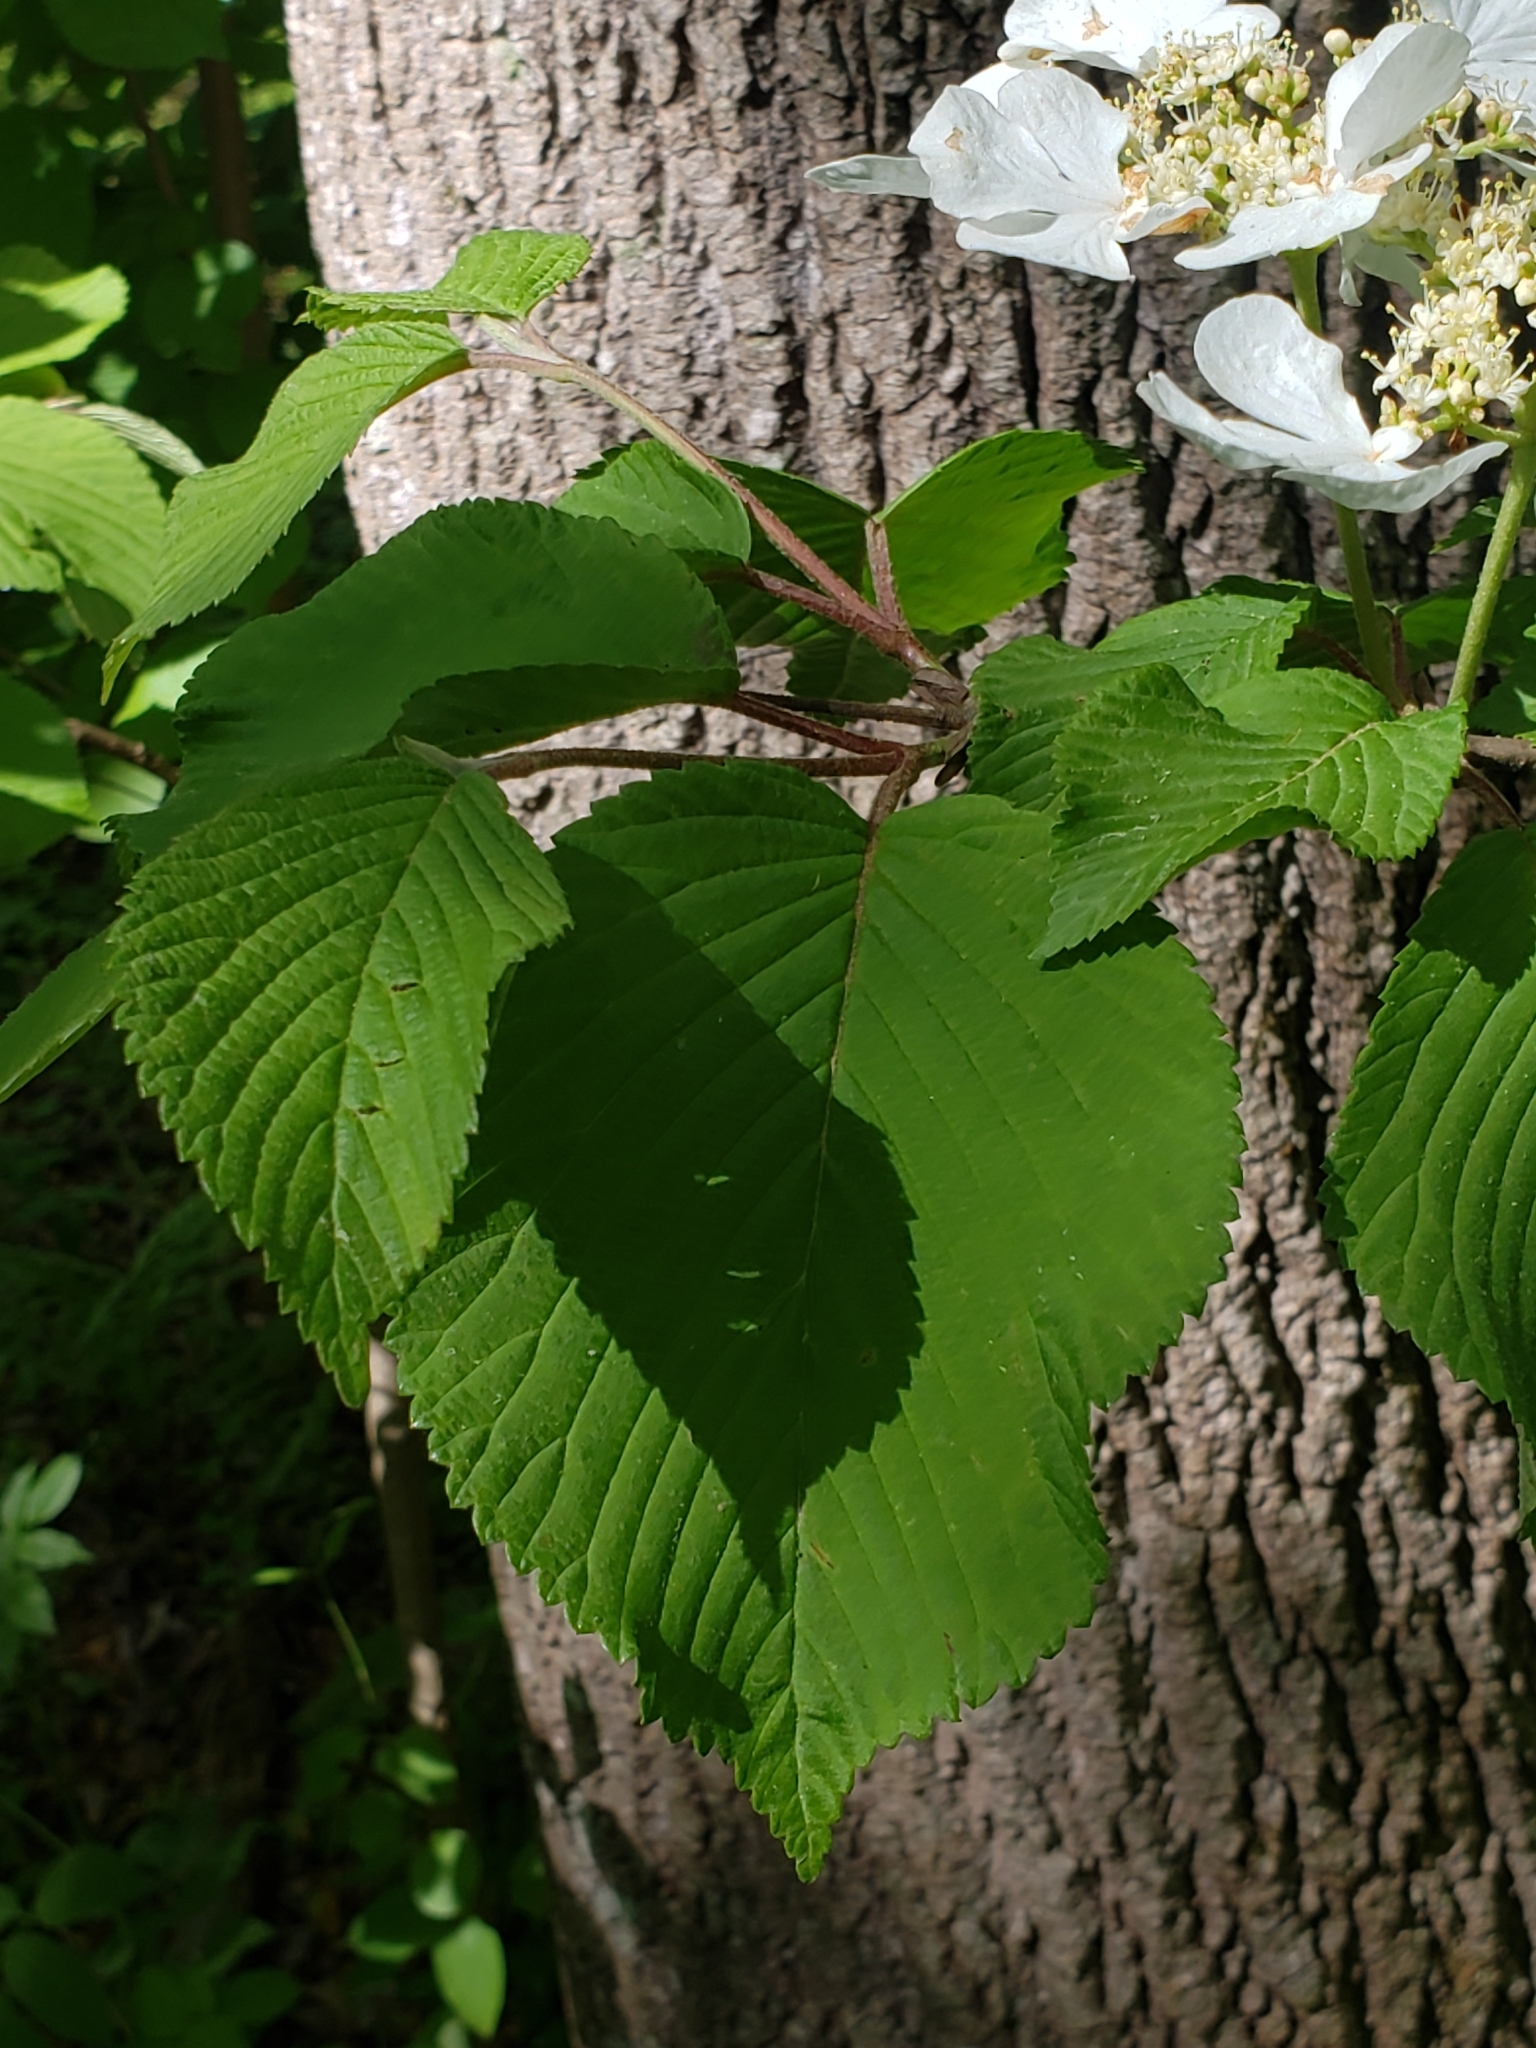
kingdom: Plantae
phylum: Tracheophyta
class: Magnoliopsida
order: Dipsacales
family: Viburnaceae
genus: Viburnum
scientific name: Viburnum plicatum
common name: Japanese snowball
